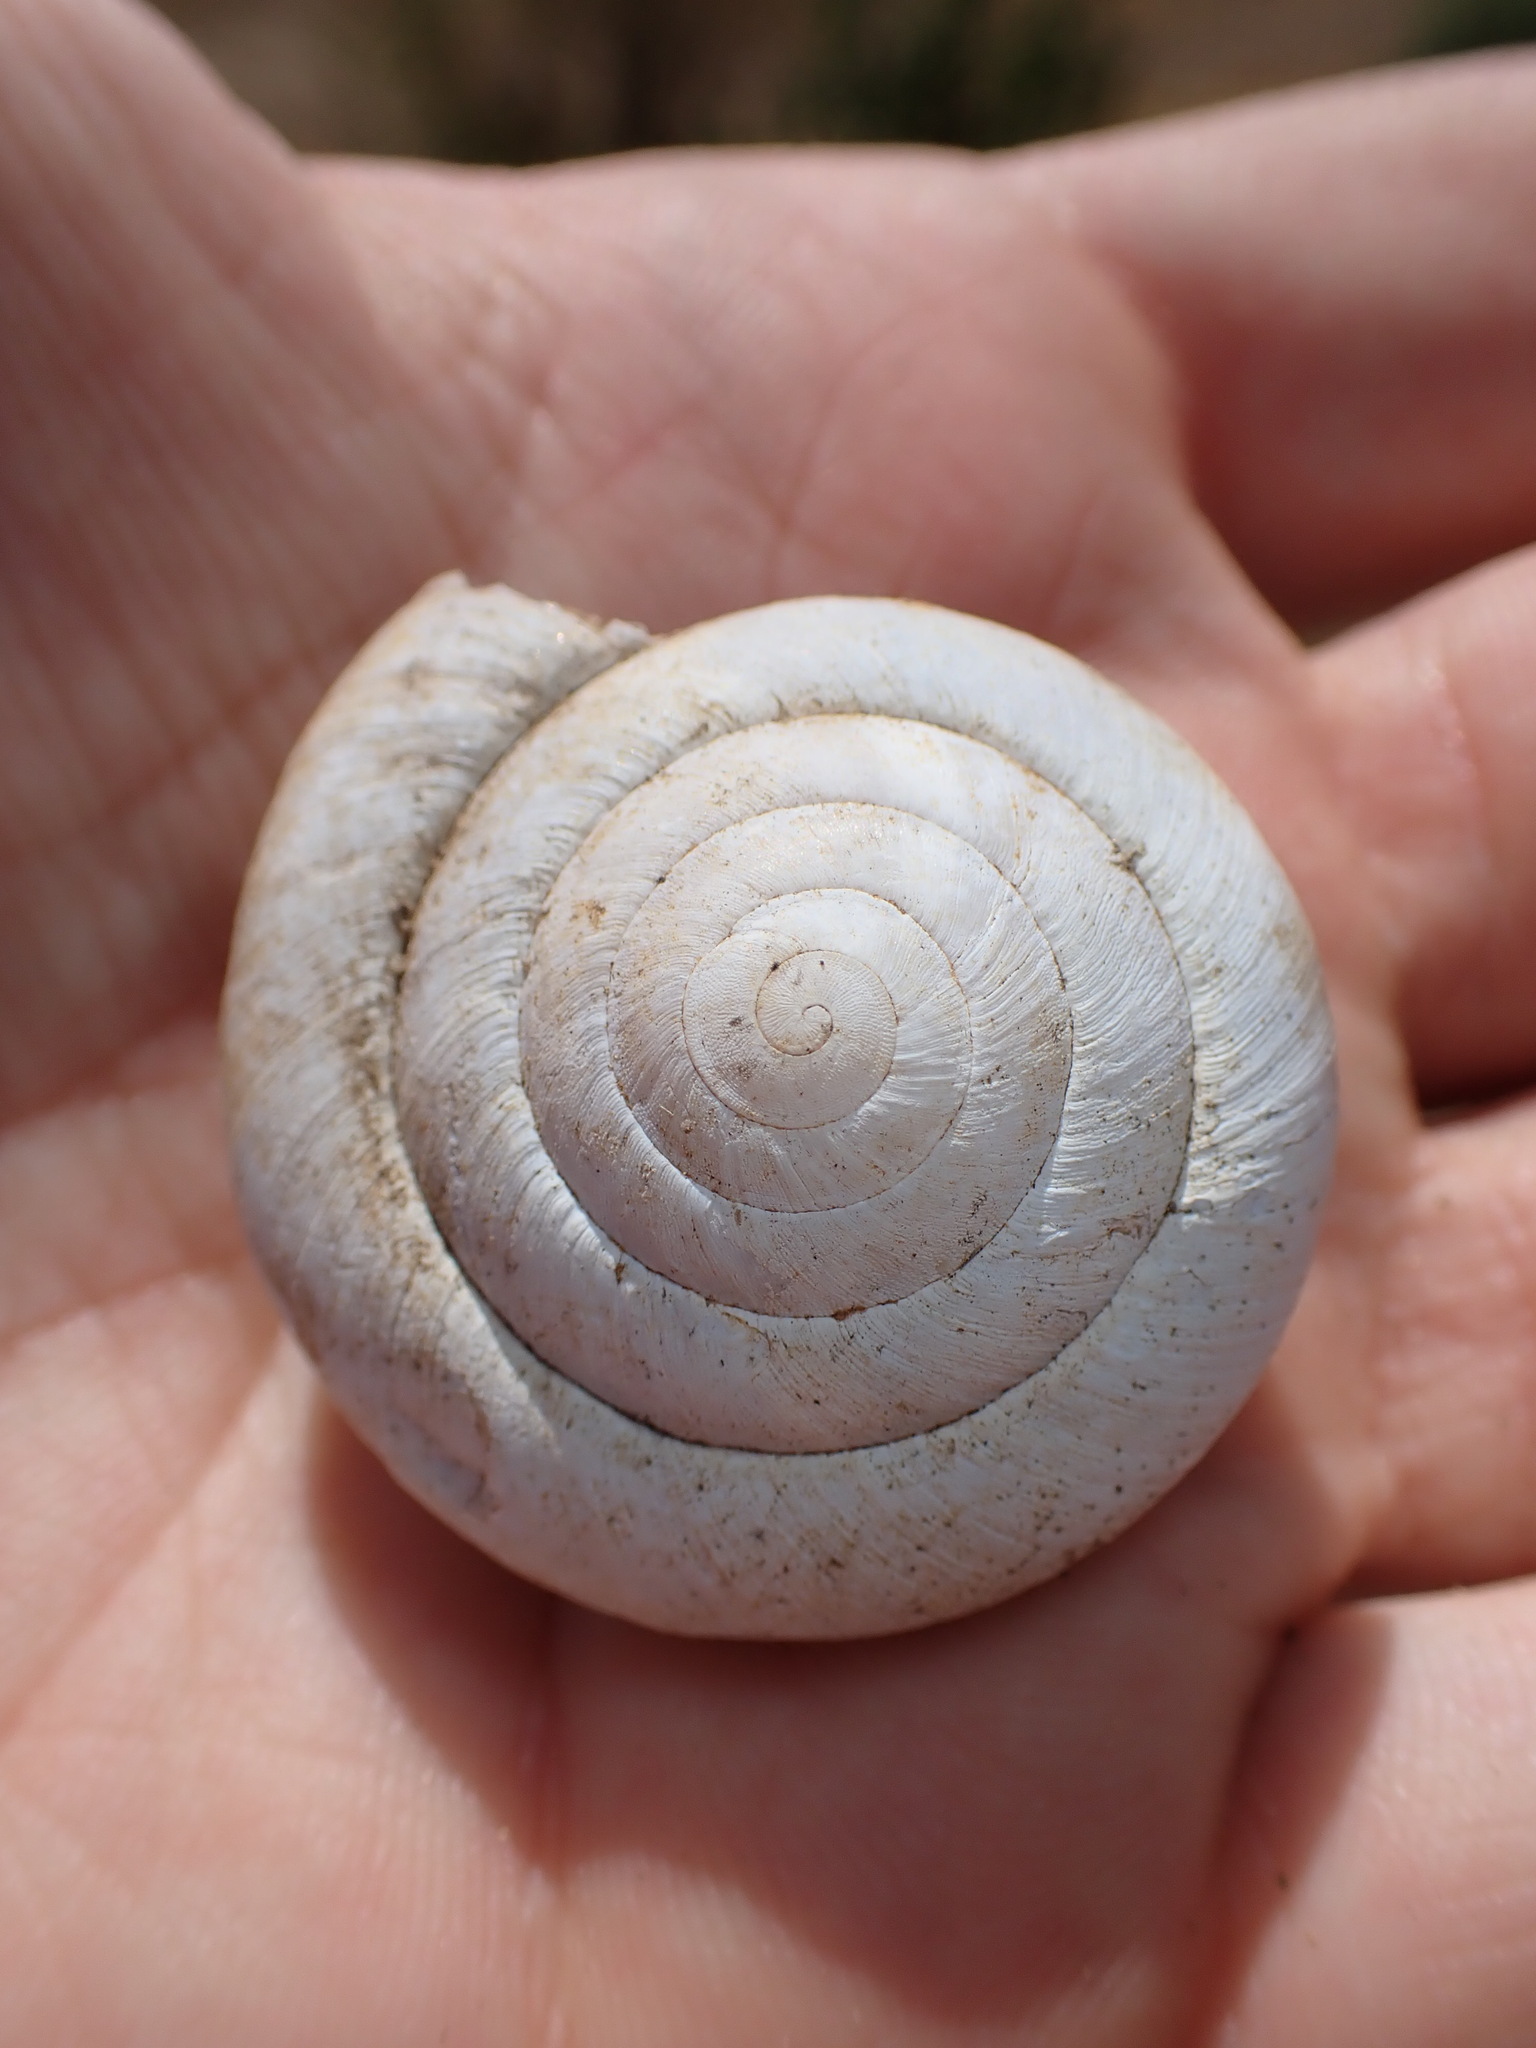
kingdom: Animalia
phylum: Mollusca
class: Gastropoda
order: Stylommatophora
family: Zonitidae
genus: Zonites
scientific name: Zonites algirus
